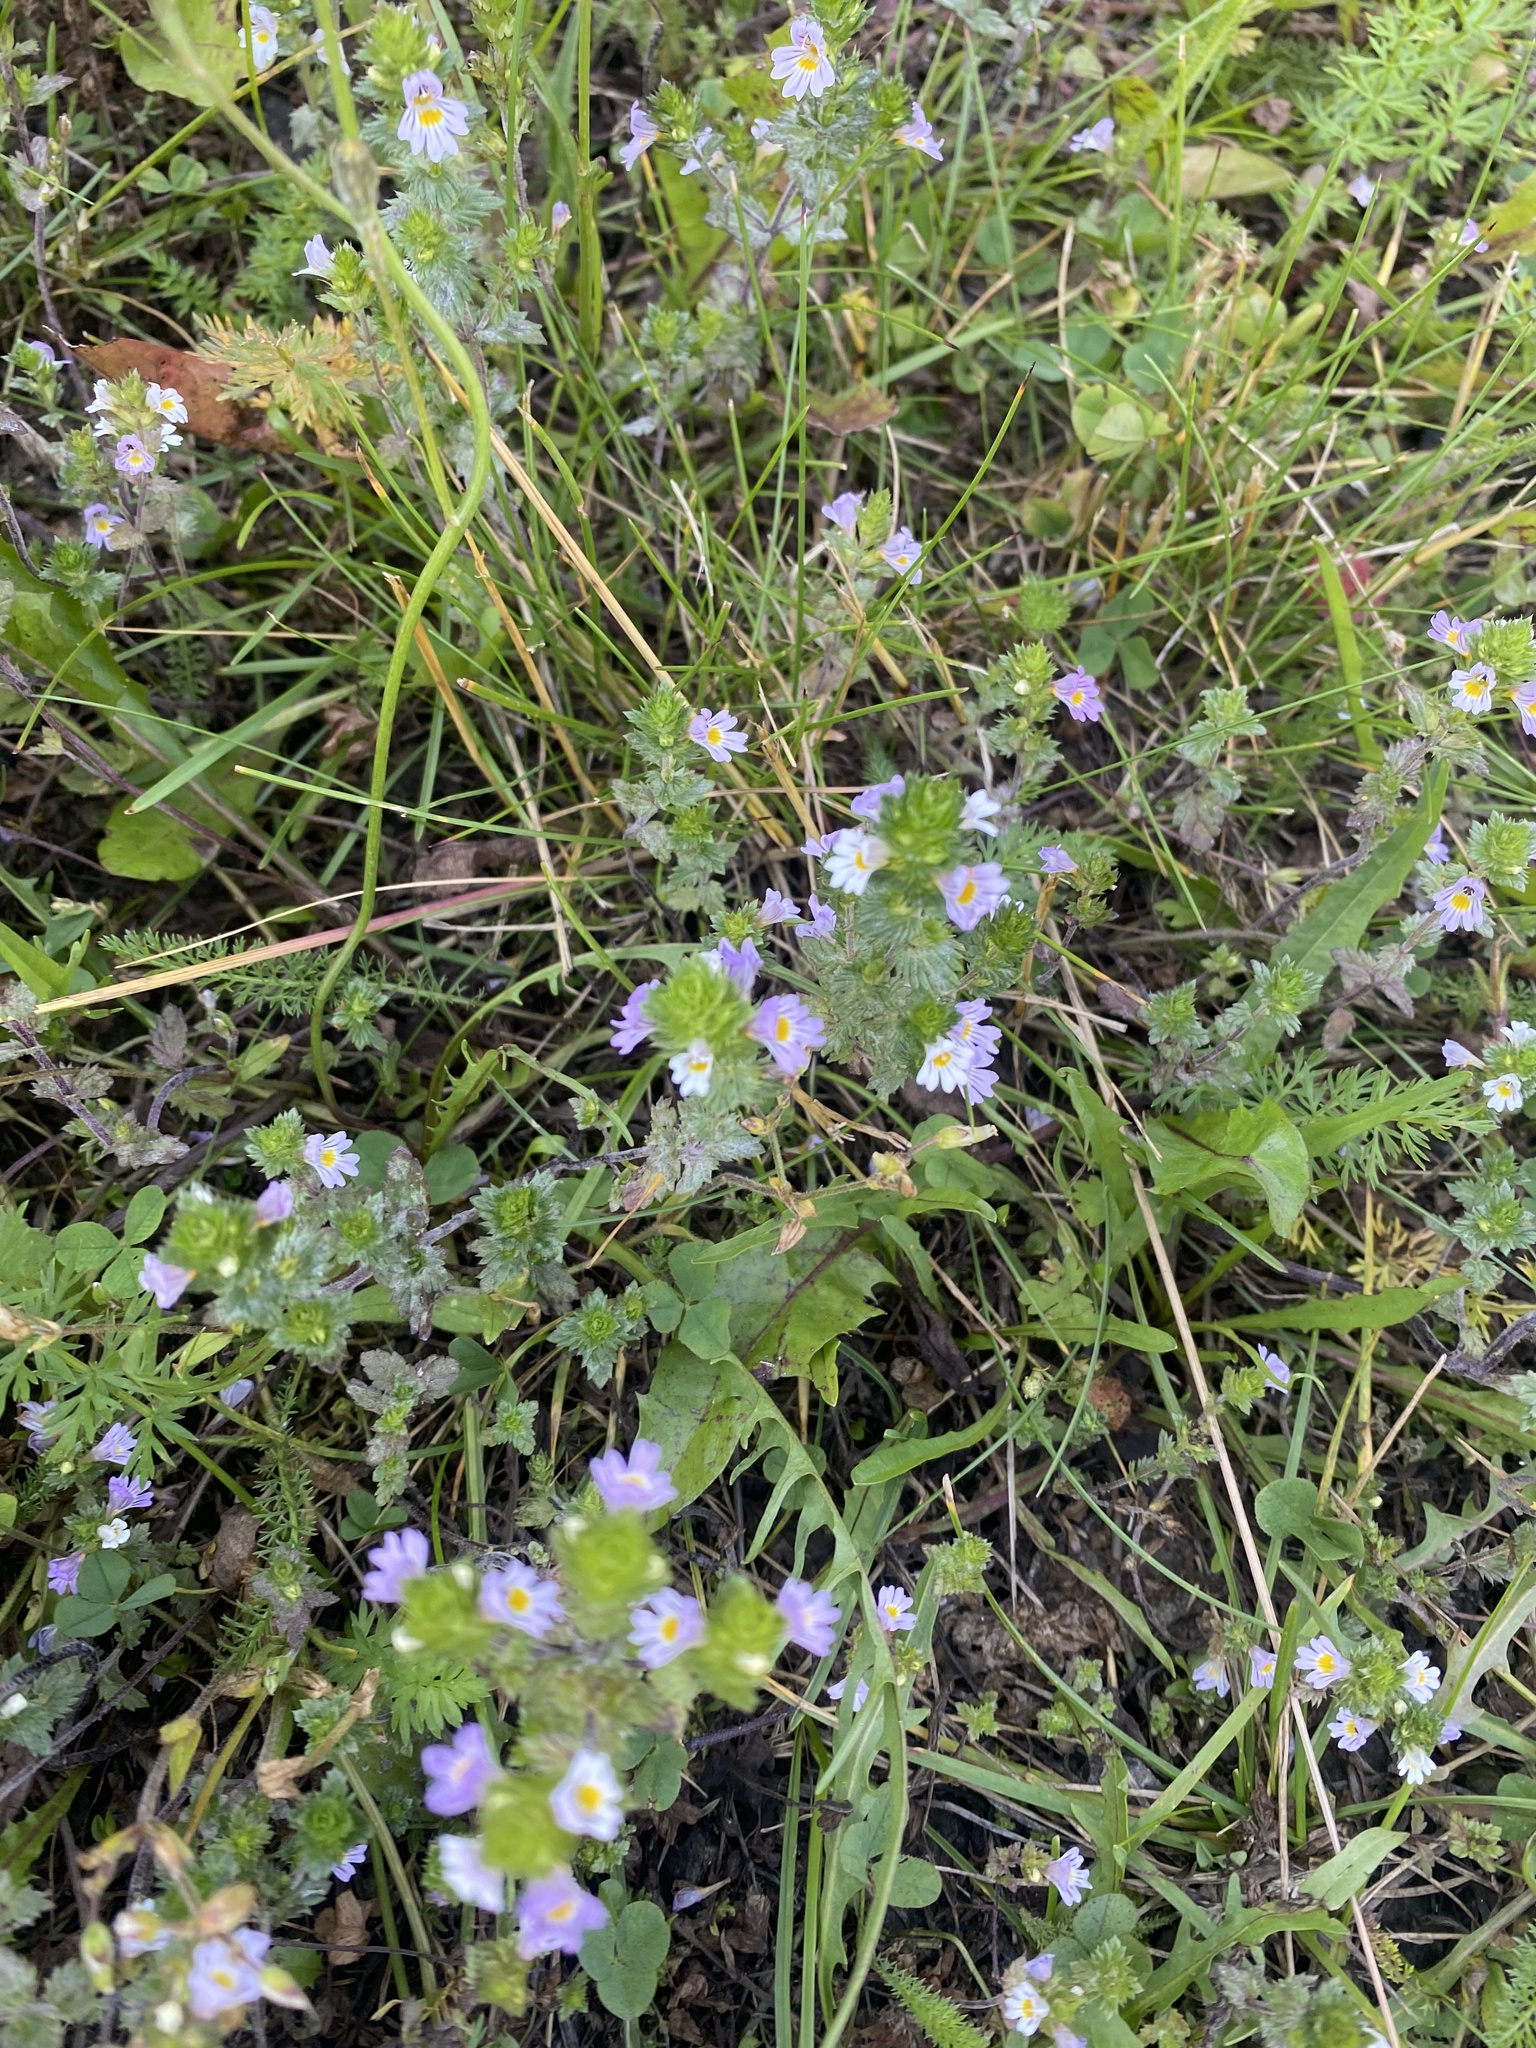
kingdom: Plantae
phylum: Tracheophyta
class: Magnoliopsida
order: Lamiales
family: Orobanchaceae
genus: Euphrasia
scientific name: Euphrasia stricta
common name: Drug eyebright
